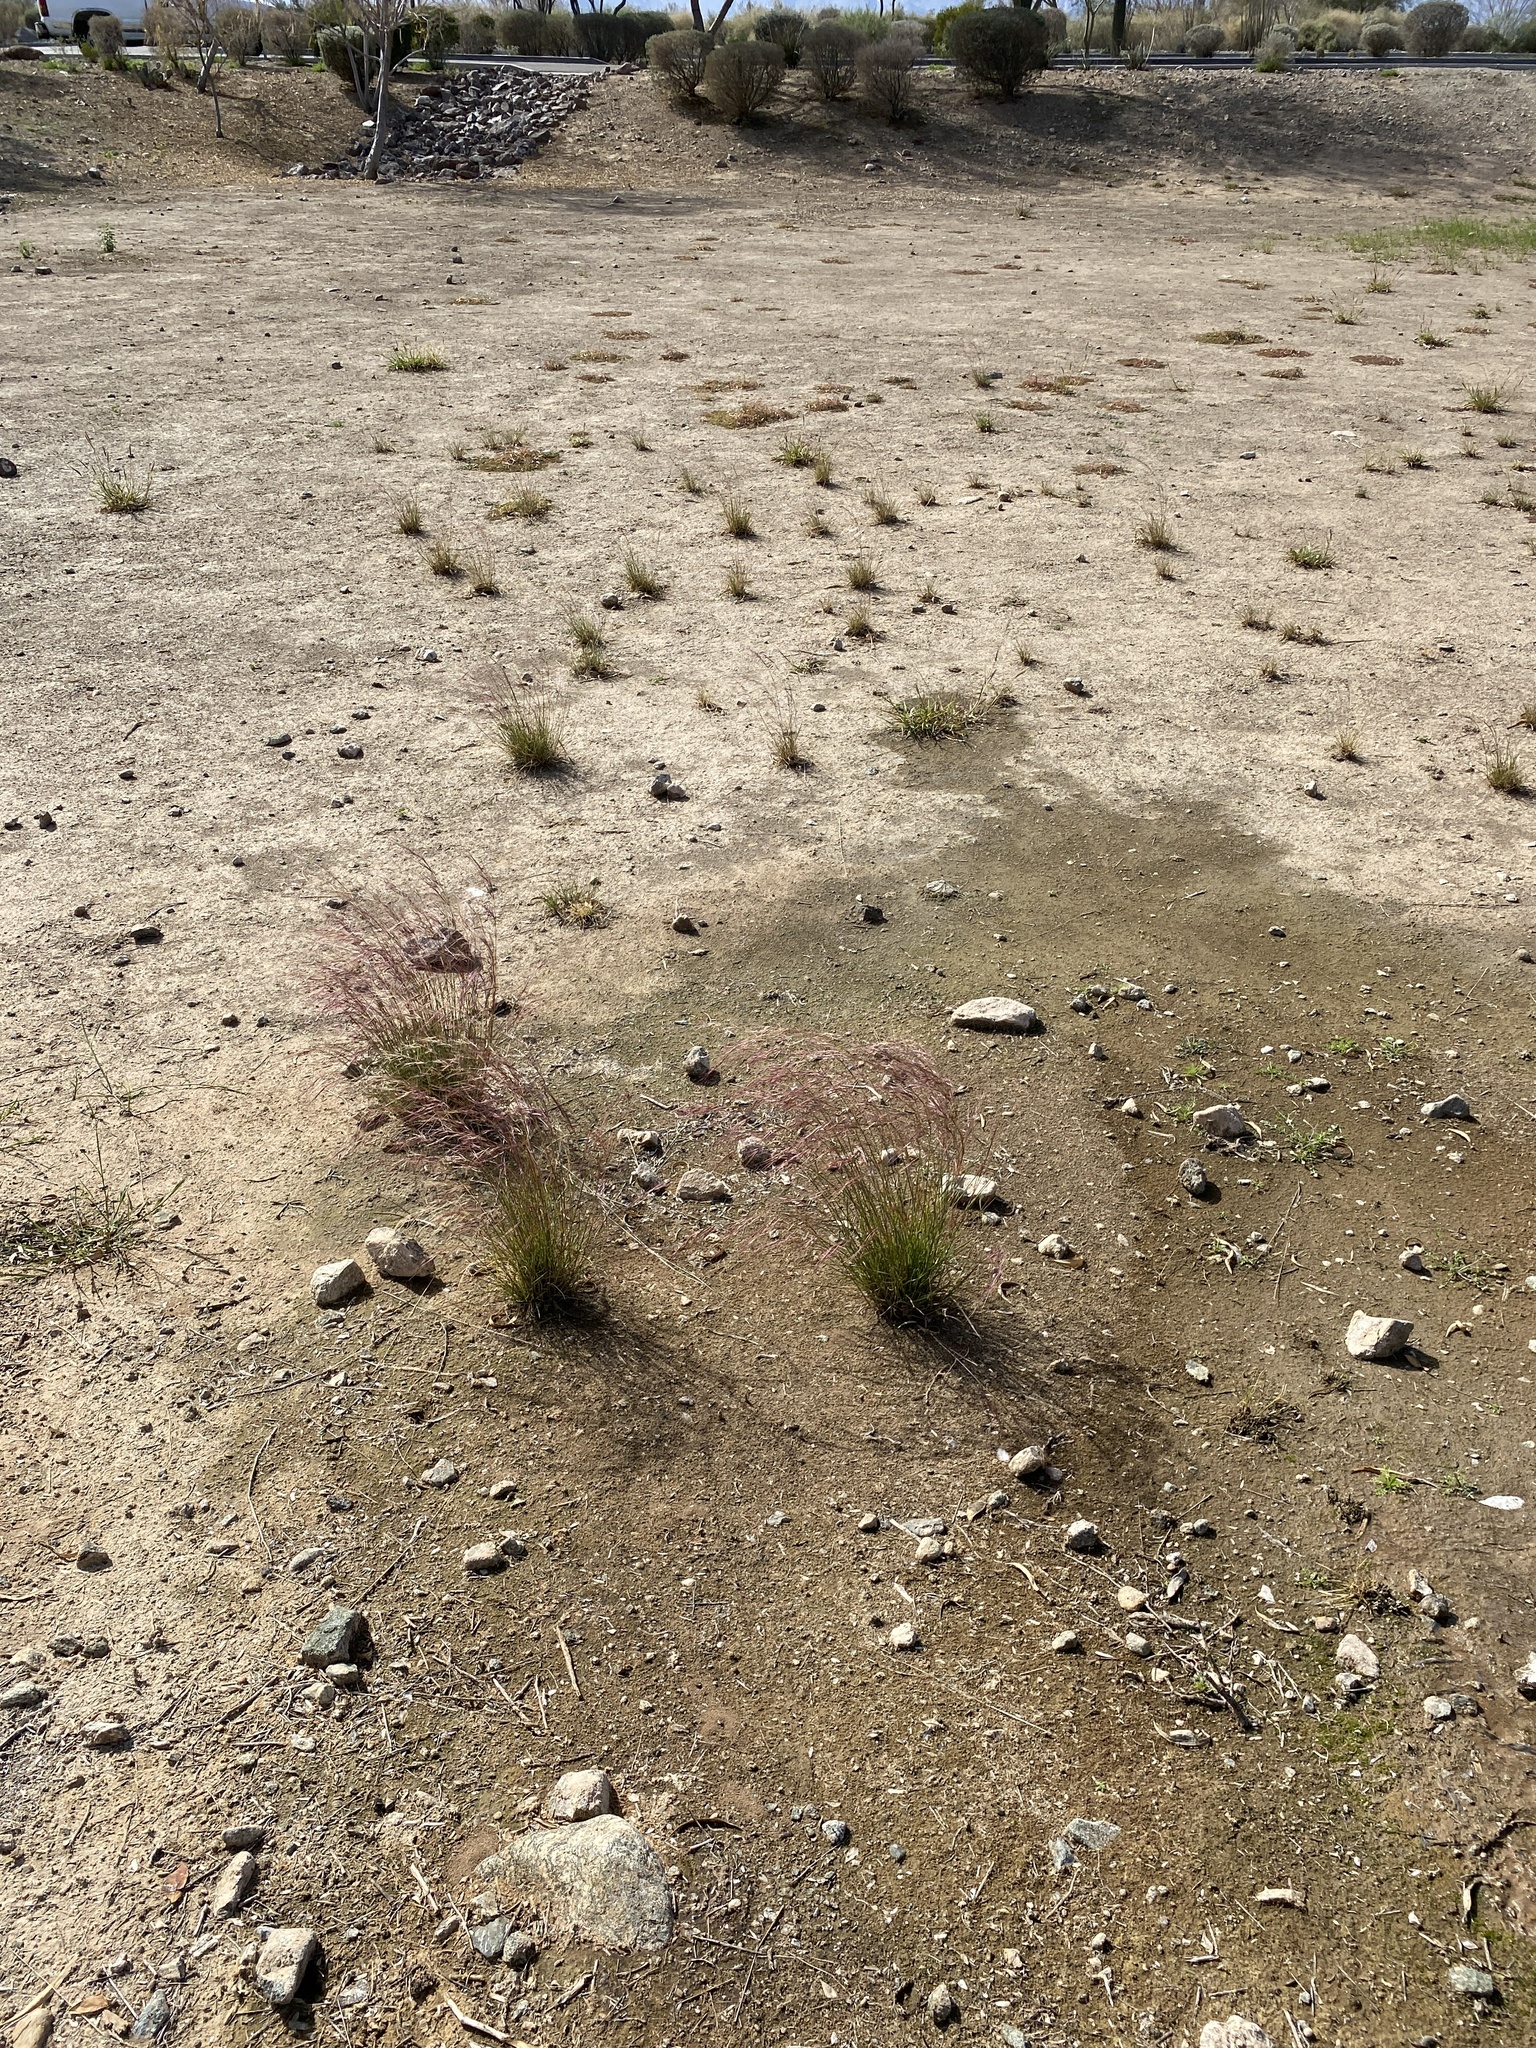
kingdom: Plantae
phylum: Tracheophyta
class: Liliopsida
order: Poales
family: Poaceae
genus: Aristida
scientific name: Aristida purpurea
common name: Purple threeawn
